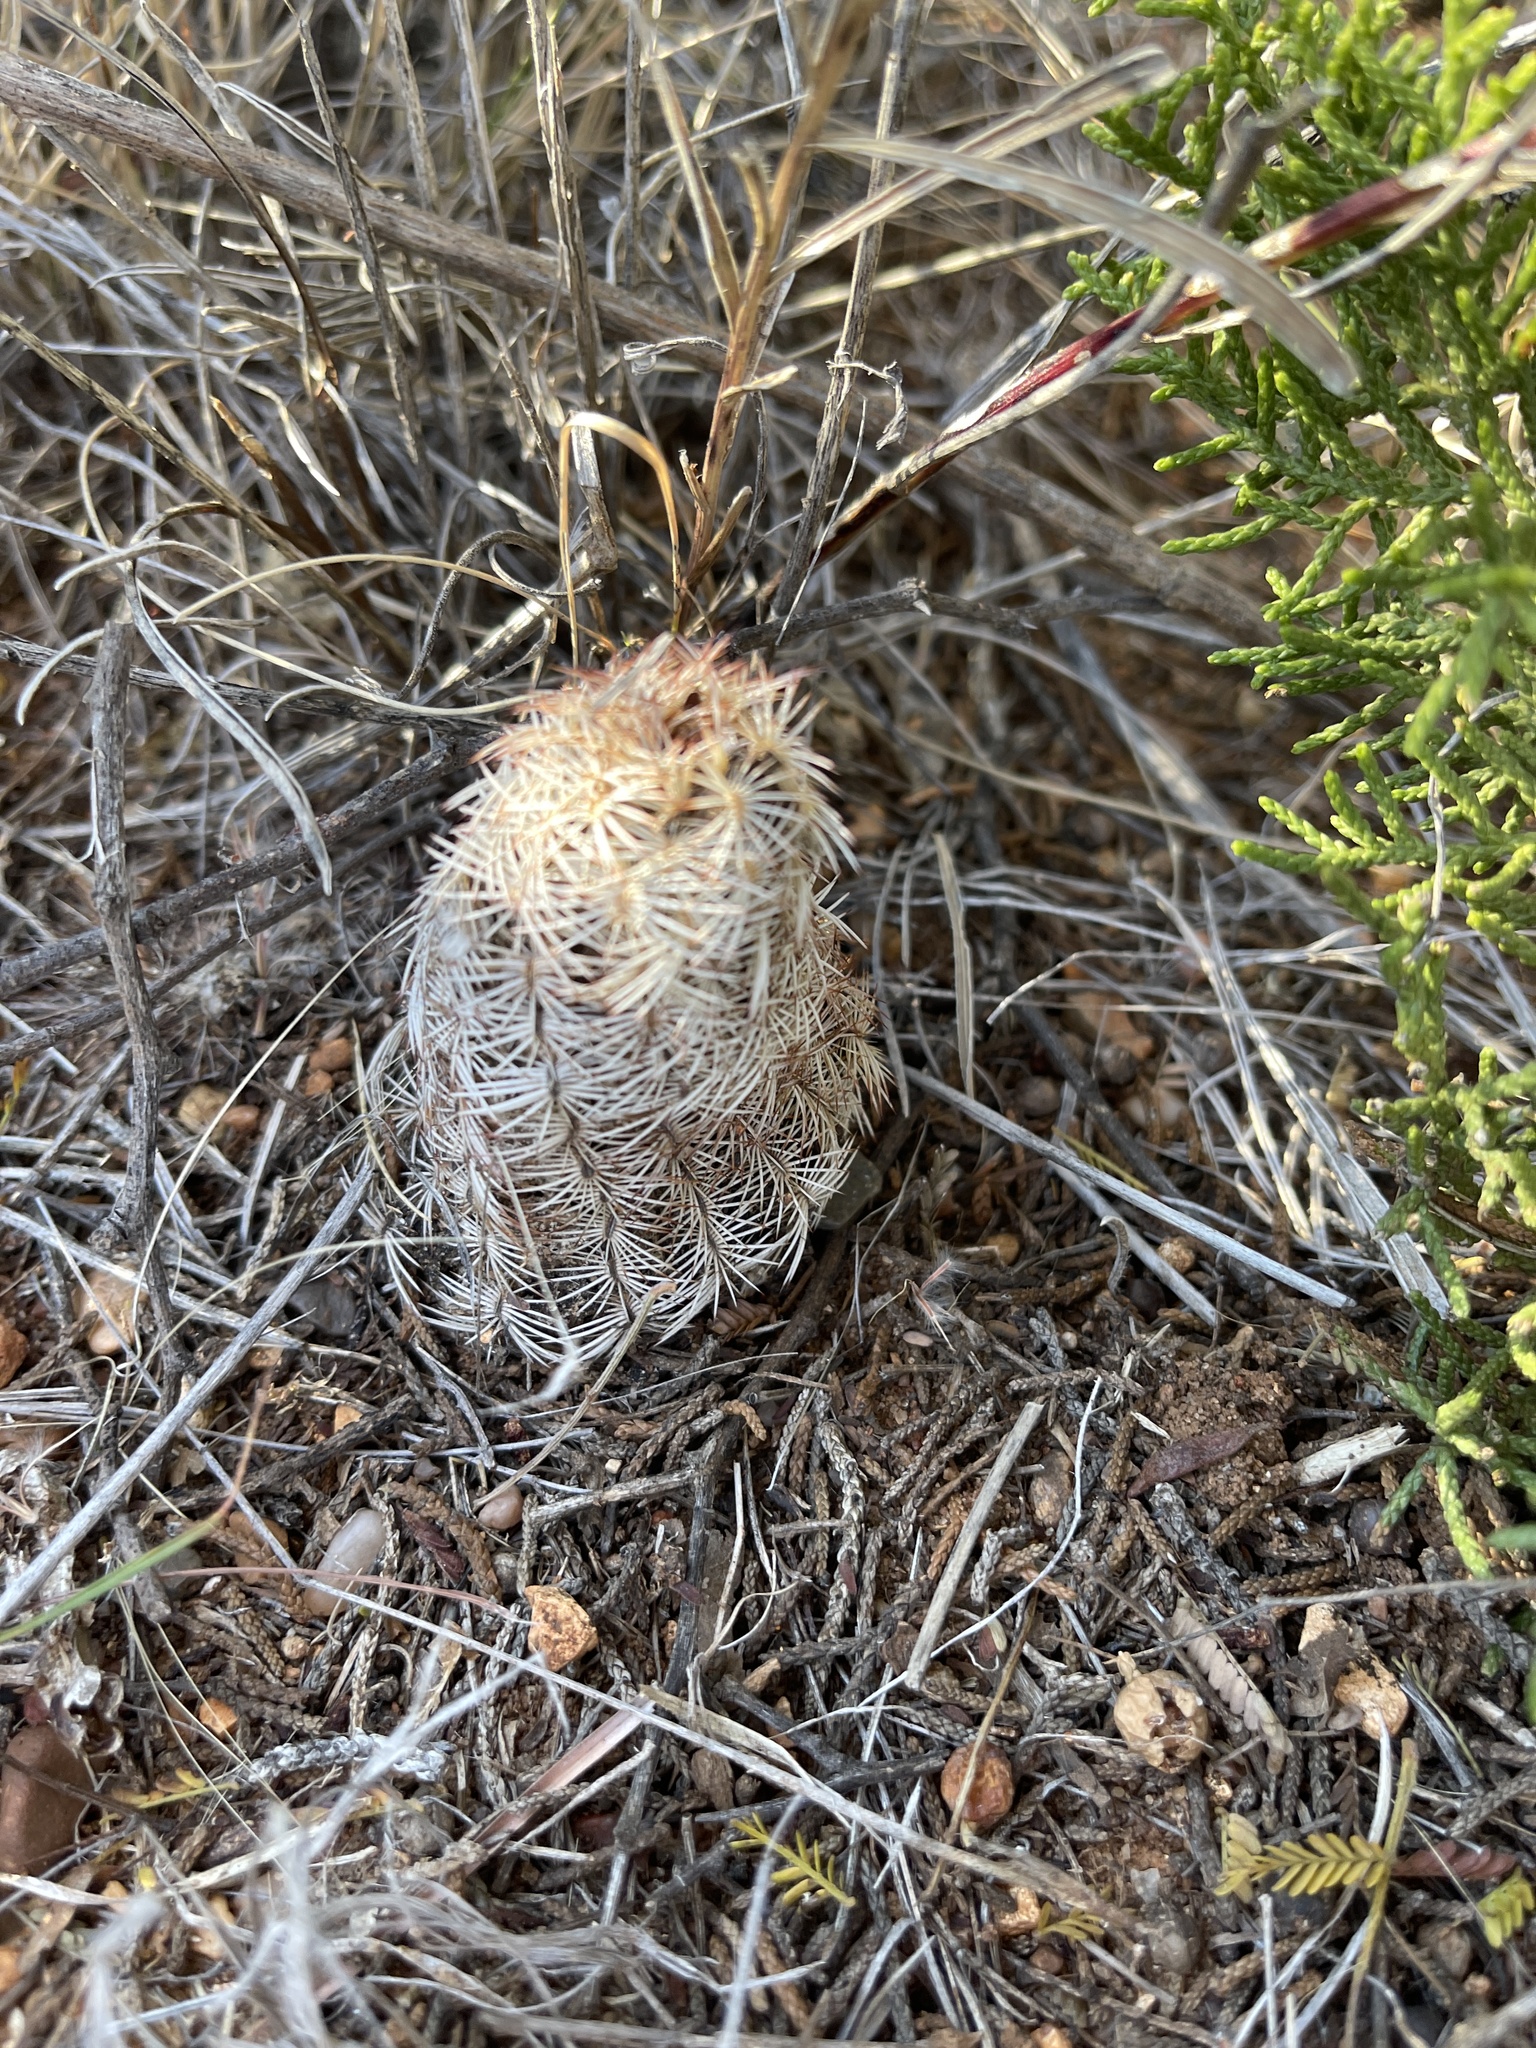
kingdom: Plantae
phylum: Tracheophyta
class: Magnoliopsida
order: Caryophyllales
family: Cactaceae
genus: Echinocereus
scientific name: Echinocereus reichenbachii
